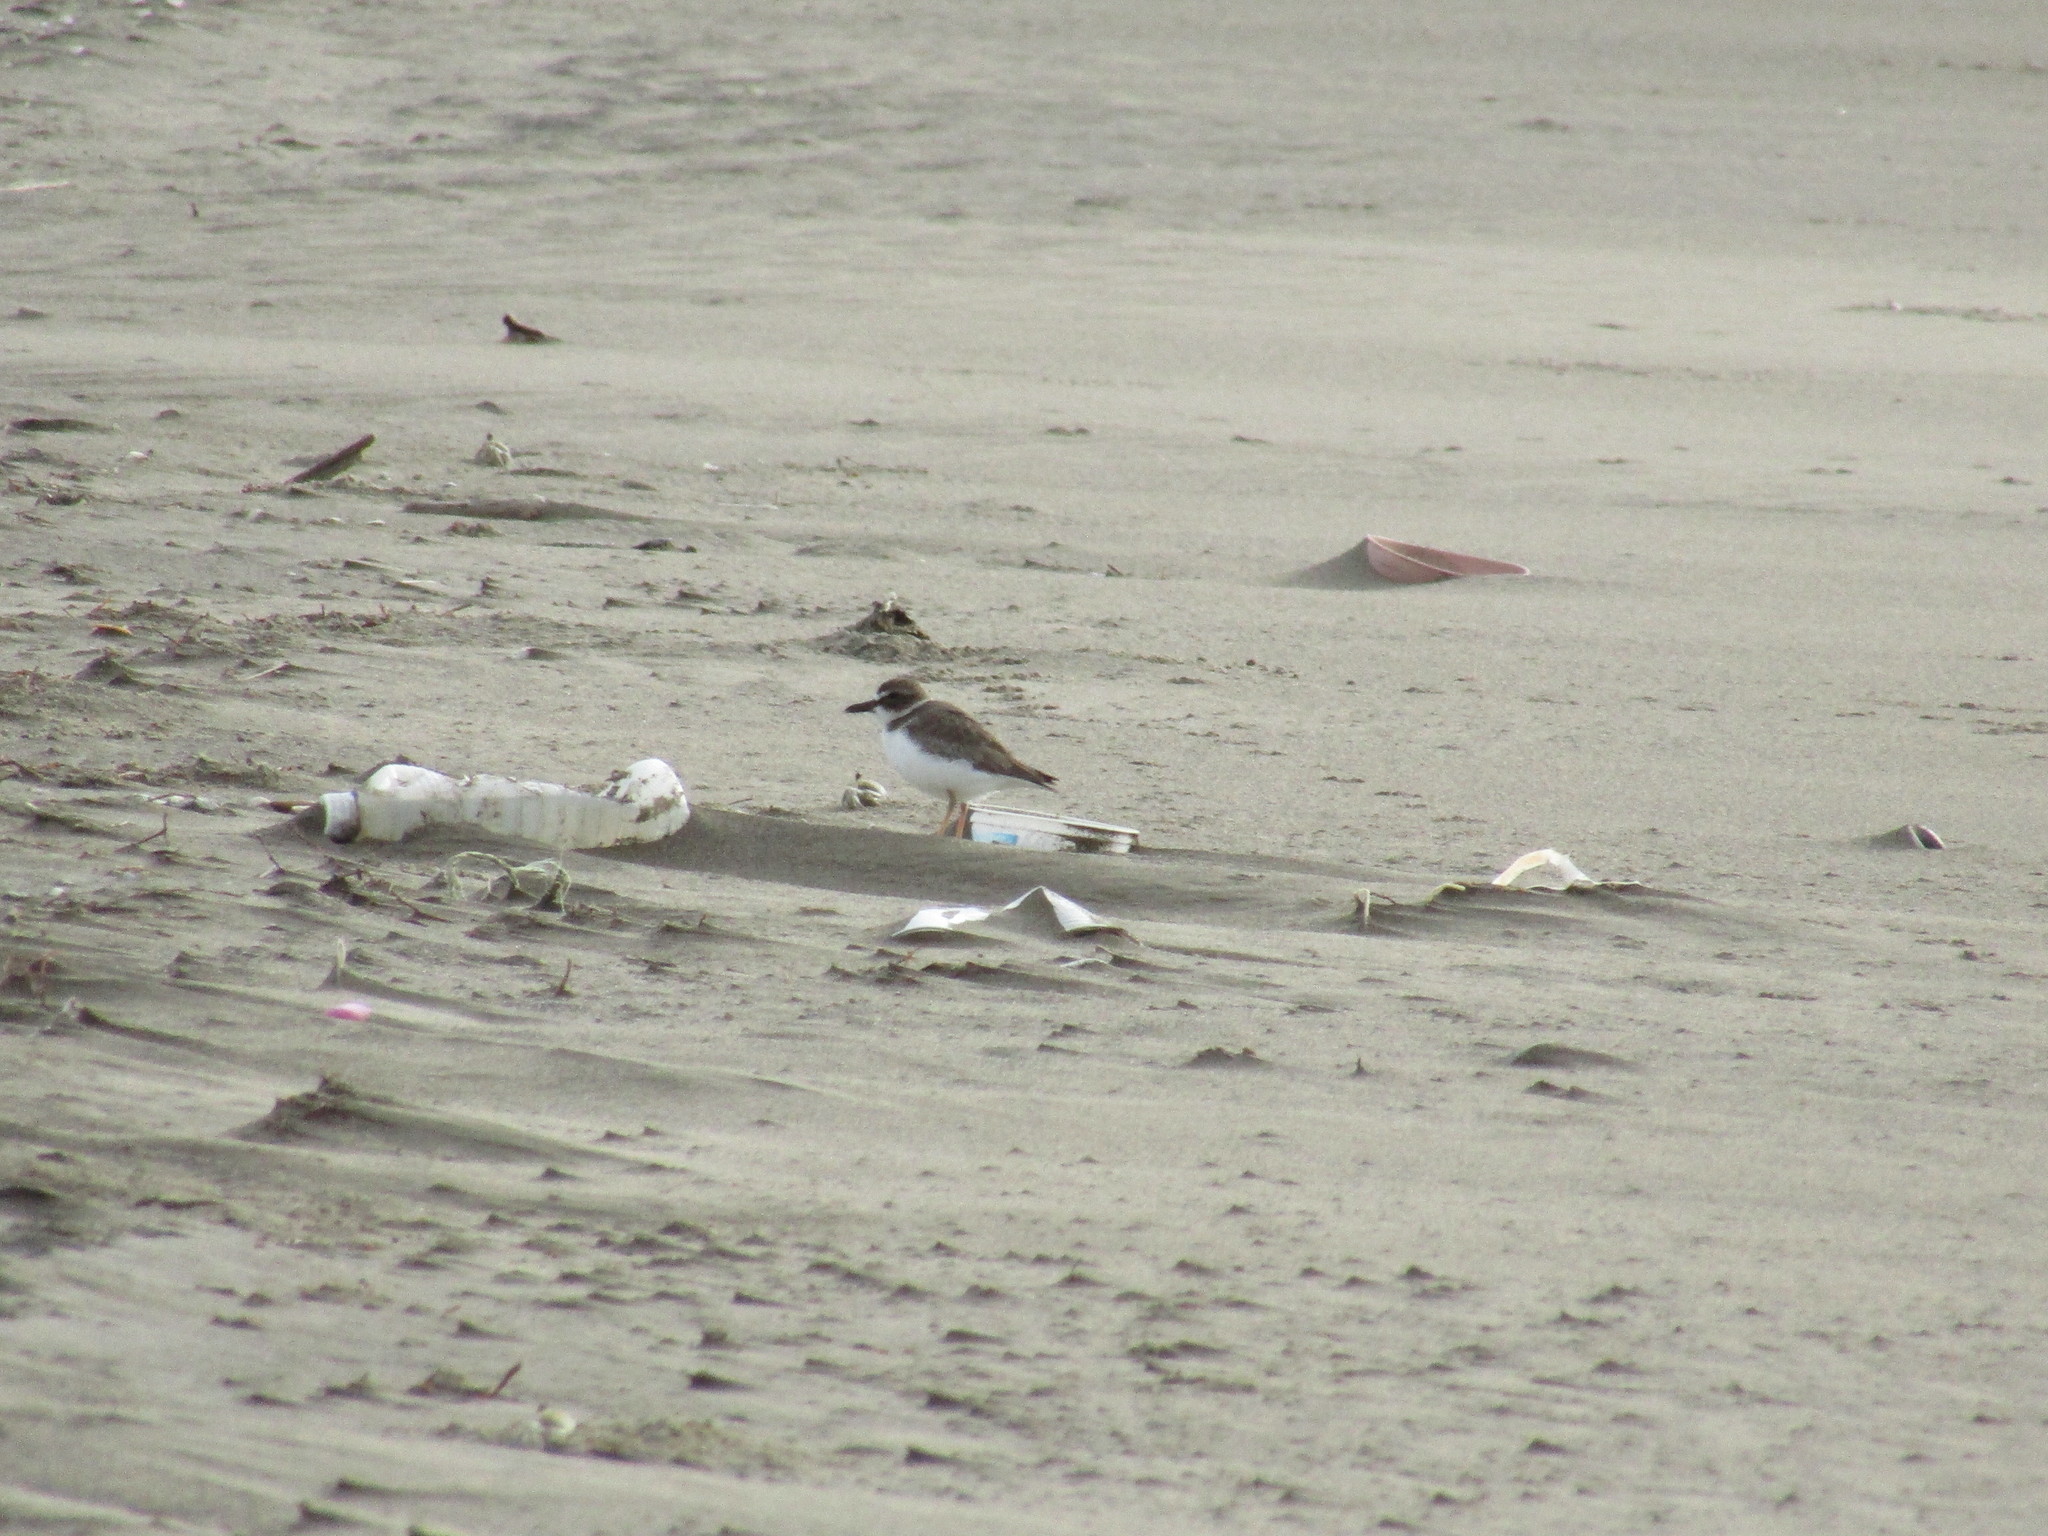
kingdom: Animalia
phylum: Chordata
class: Aves
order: Charadriiformes
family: Charadriidae
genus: Anarhynchus
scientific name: Anarhynchus
